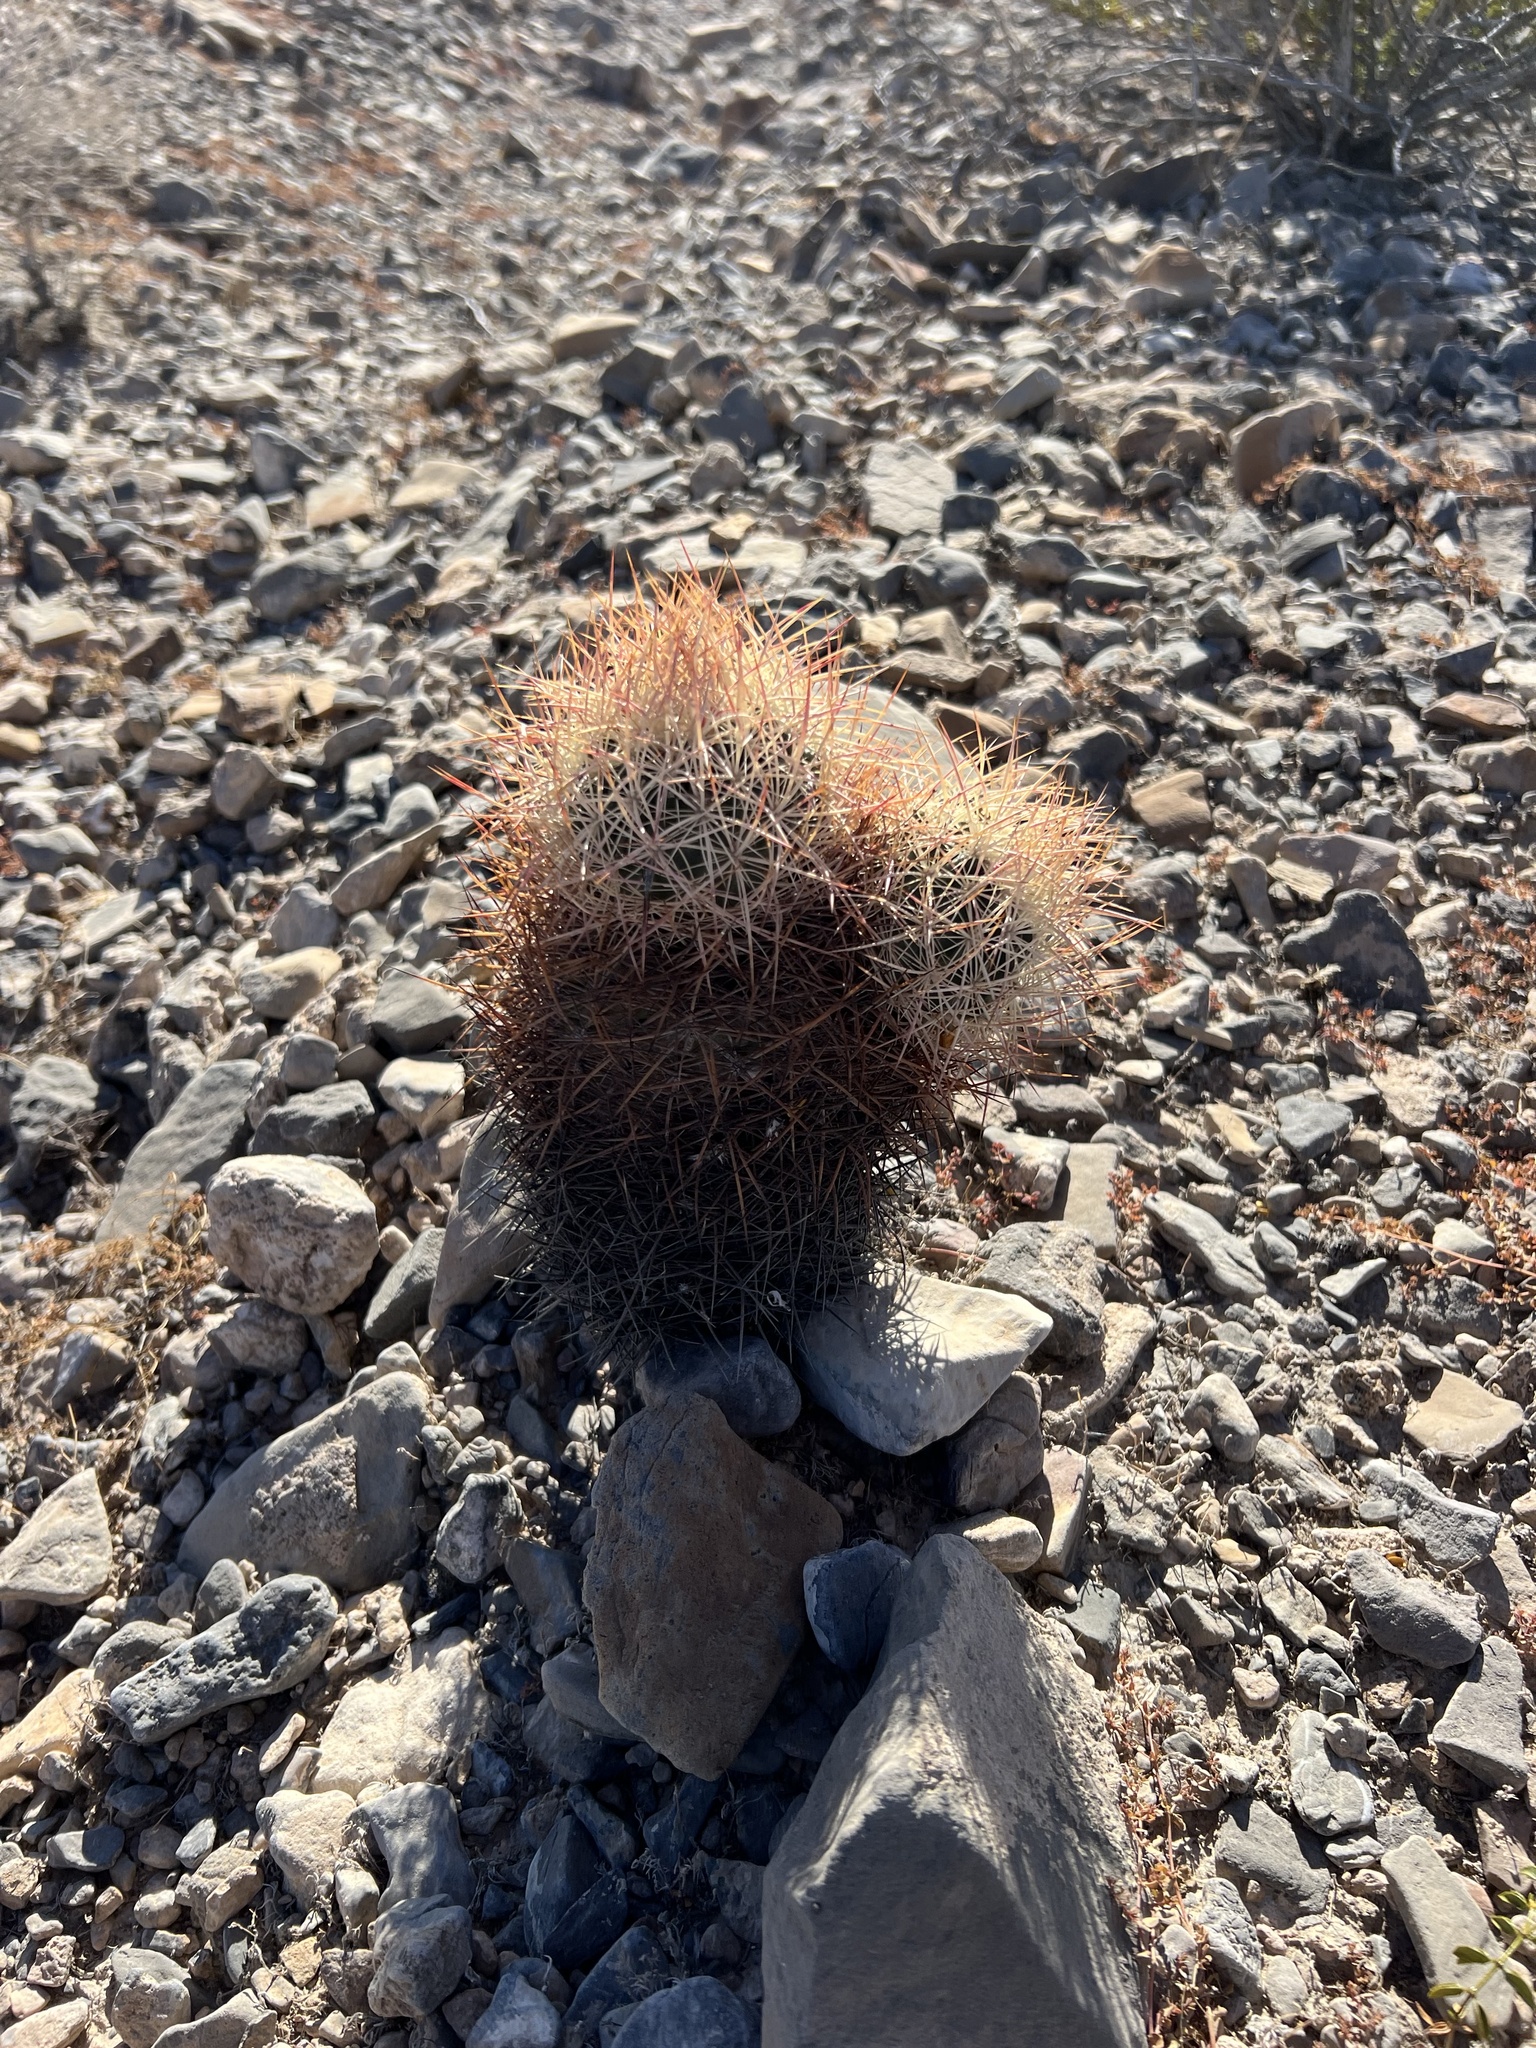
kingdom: Plantae
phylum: Tracheophyta
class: Magnoliopsida
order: Caryophyllales
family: Cactaceae
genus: Sclerocactus
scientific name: Sclerocactus johnsonii
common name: Eight-spine fishhook cactus
